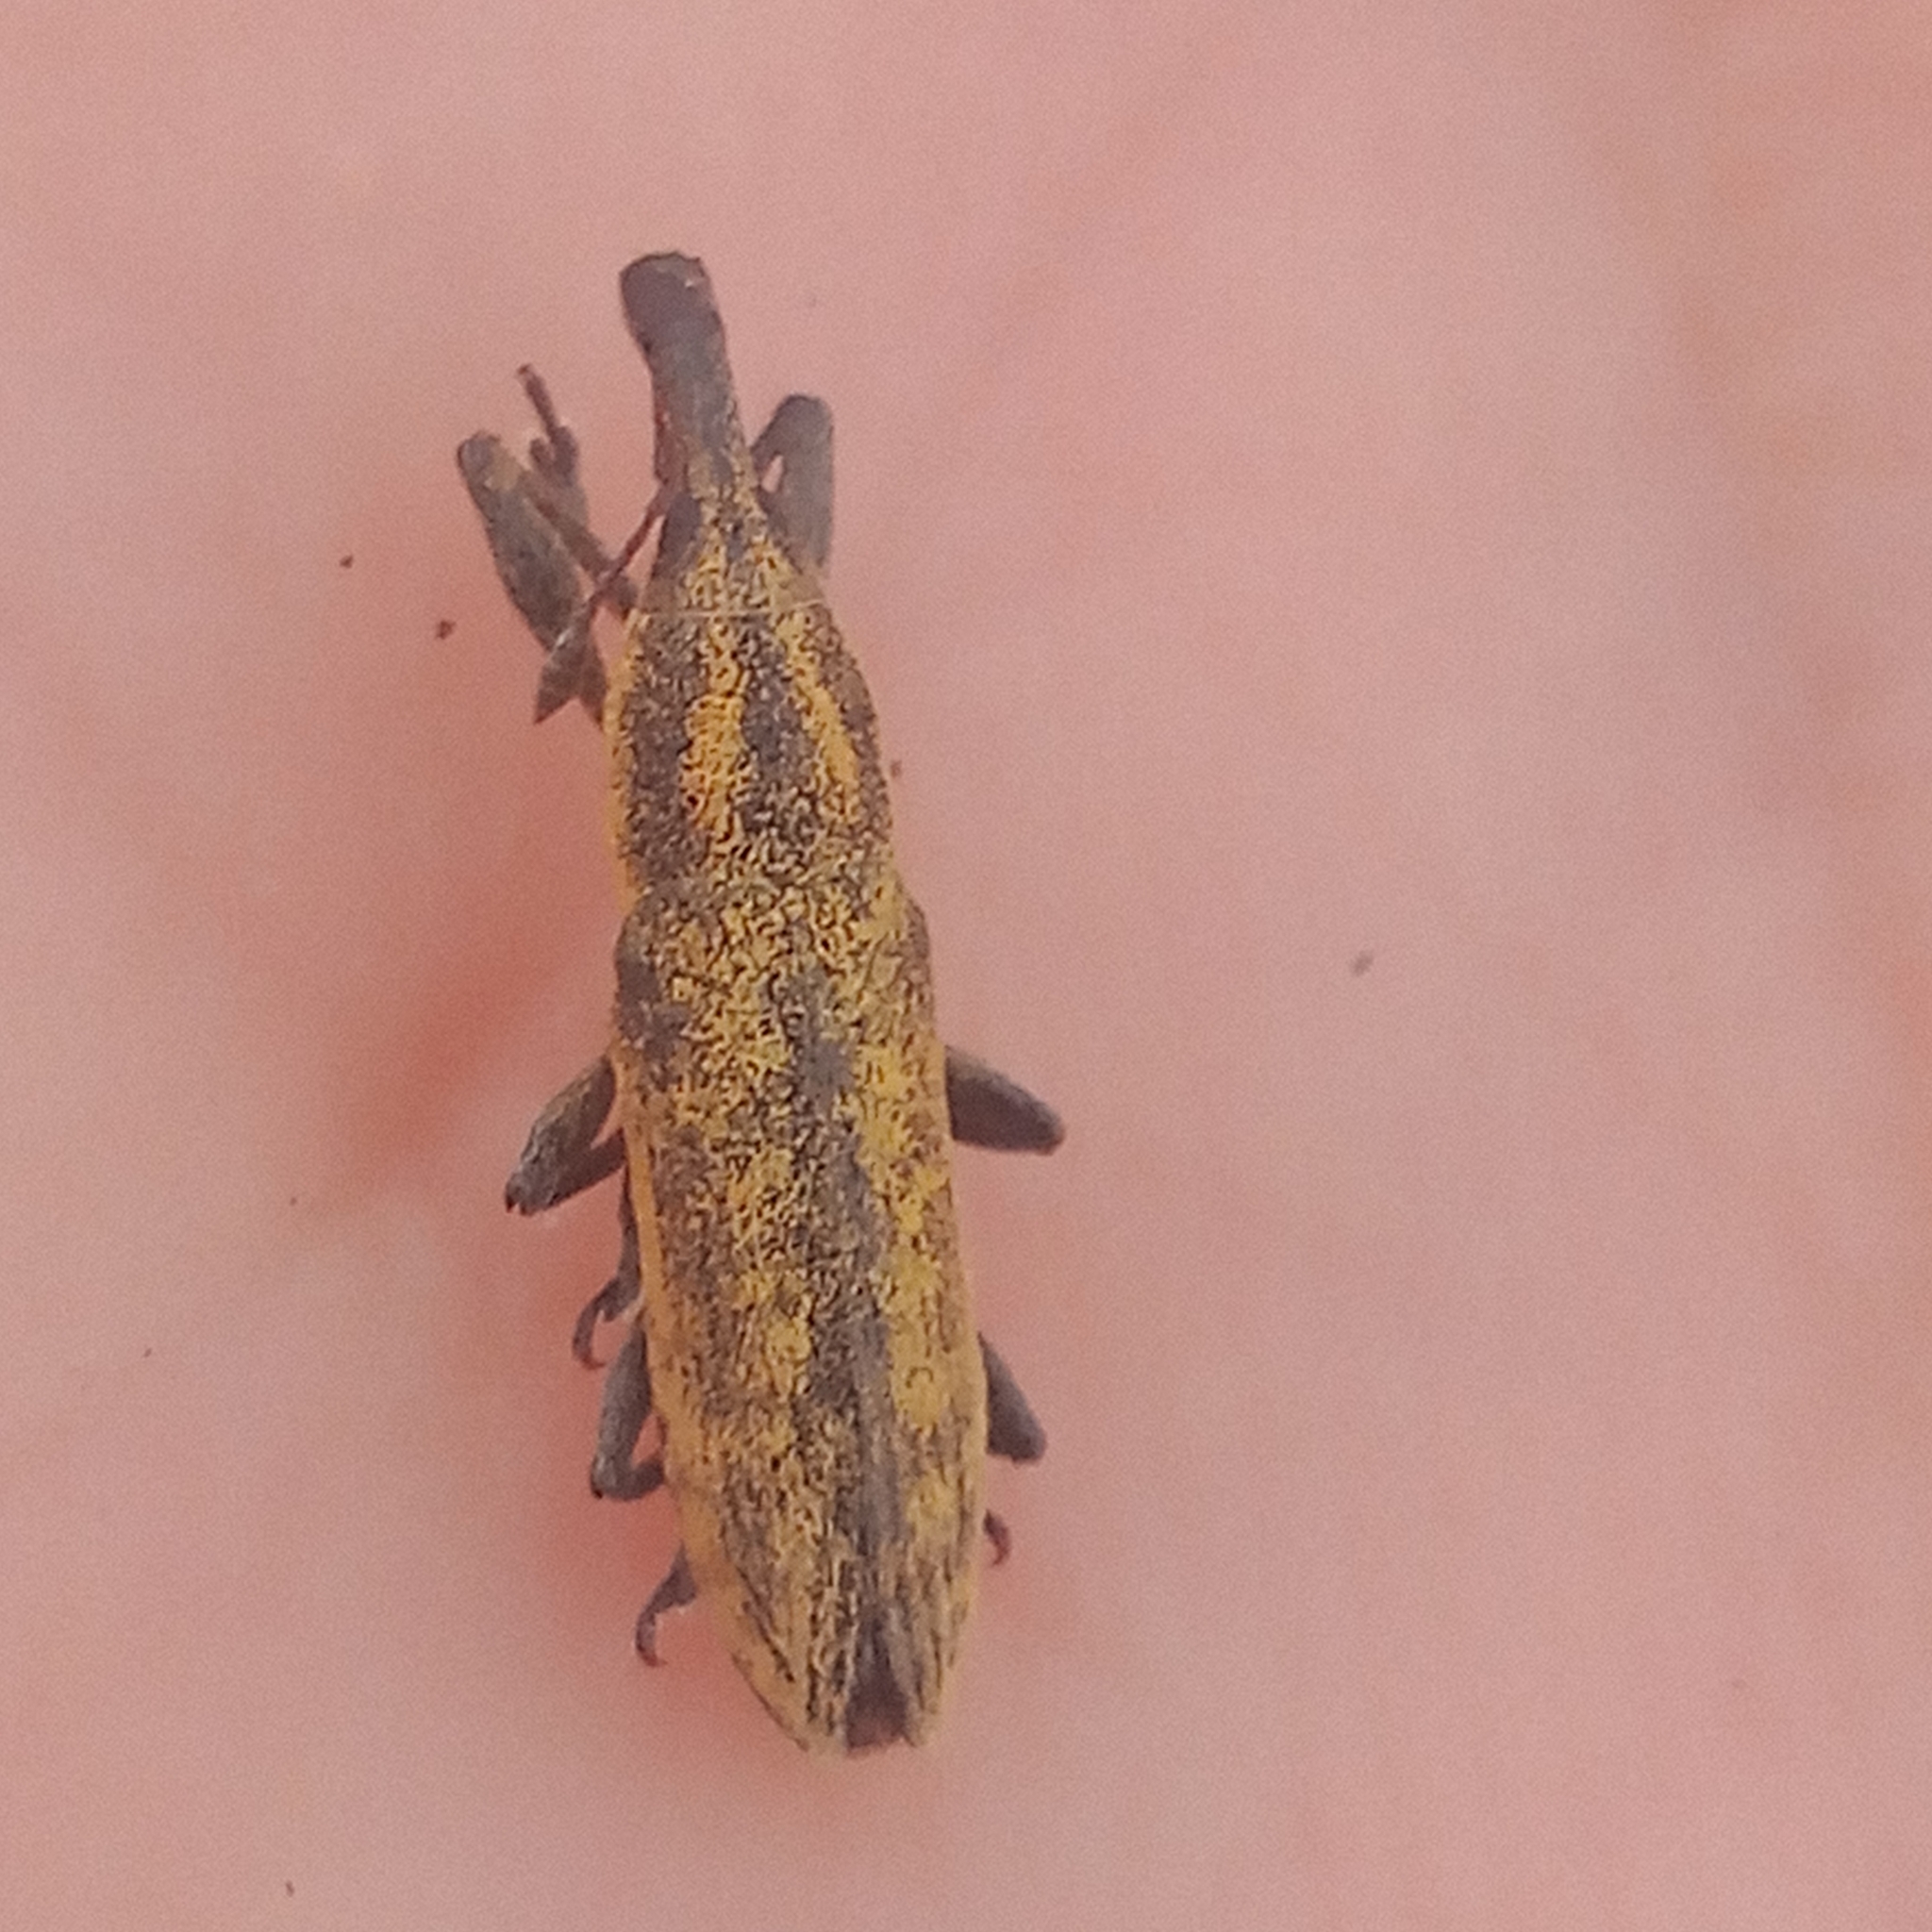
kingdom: Animalia
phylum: Arthropoda
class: Insecta
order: Coleoptera
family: Curculionidae
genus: Lixus
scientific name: Lixus fasciculatus
